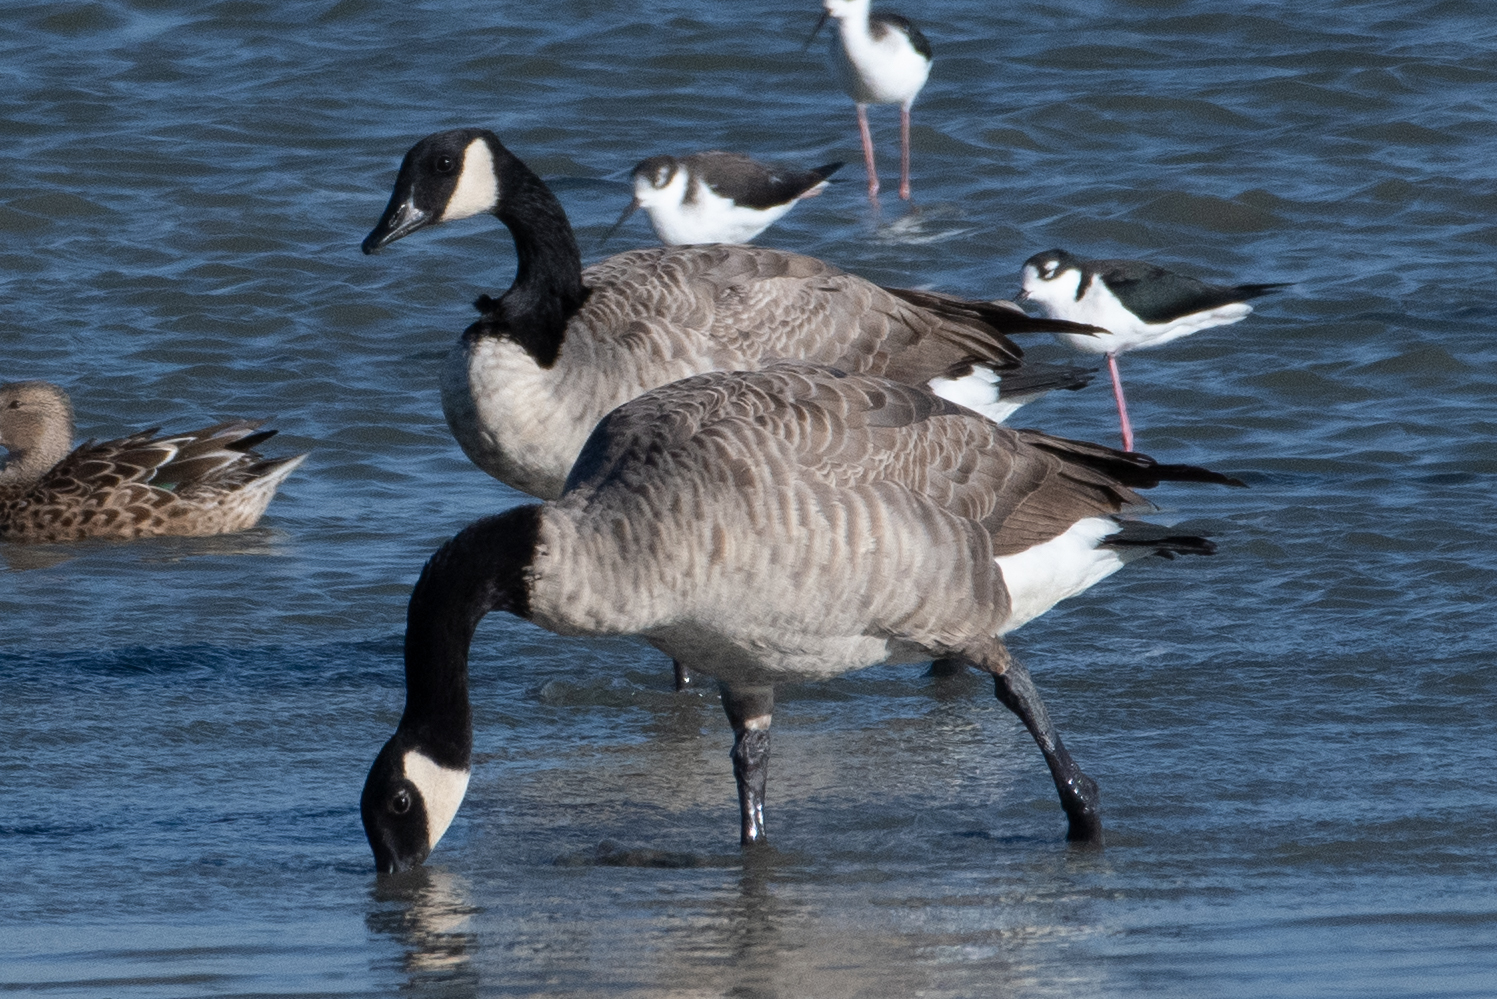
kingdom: Animalia
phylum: Chordata
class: Aves
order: Anseriformes
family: Anatidae
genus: Branta
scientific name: Branta canadensis
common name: Canada goose
